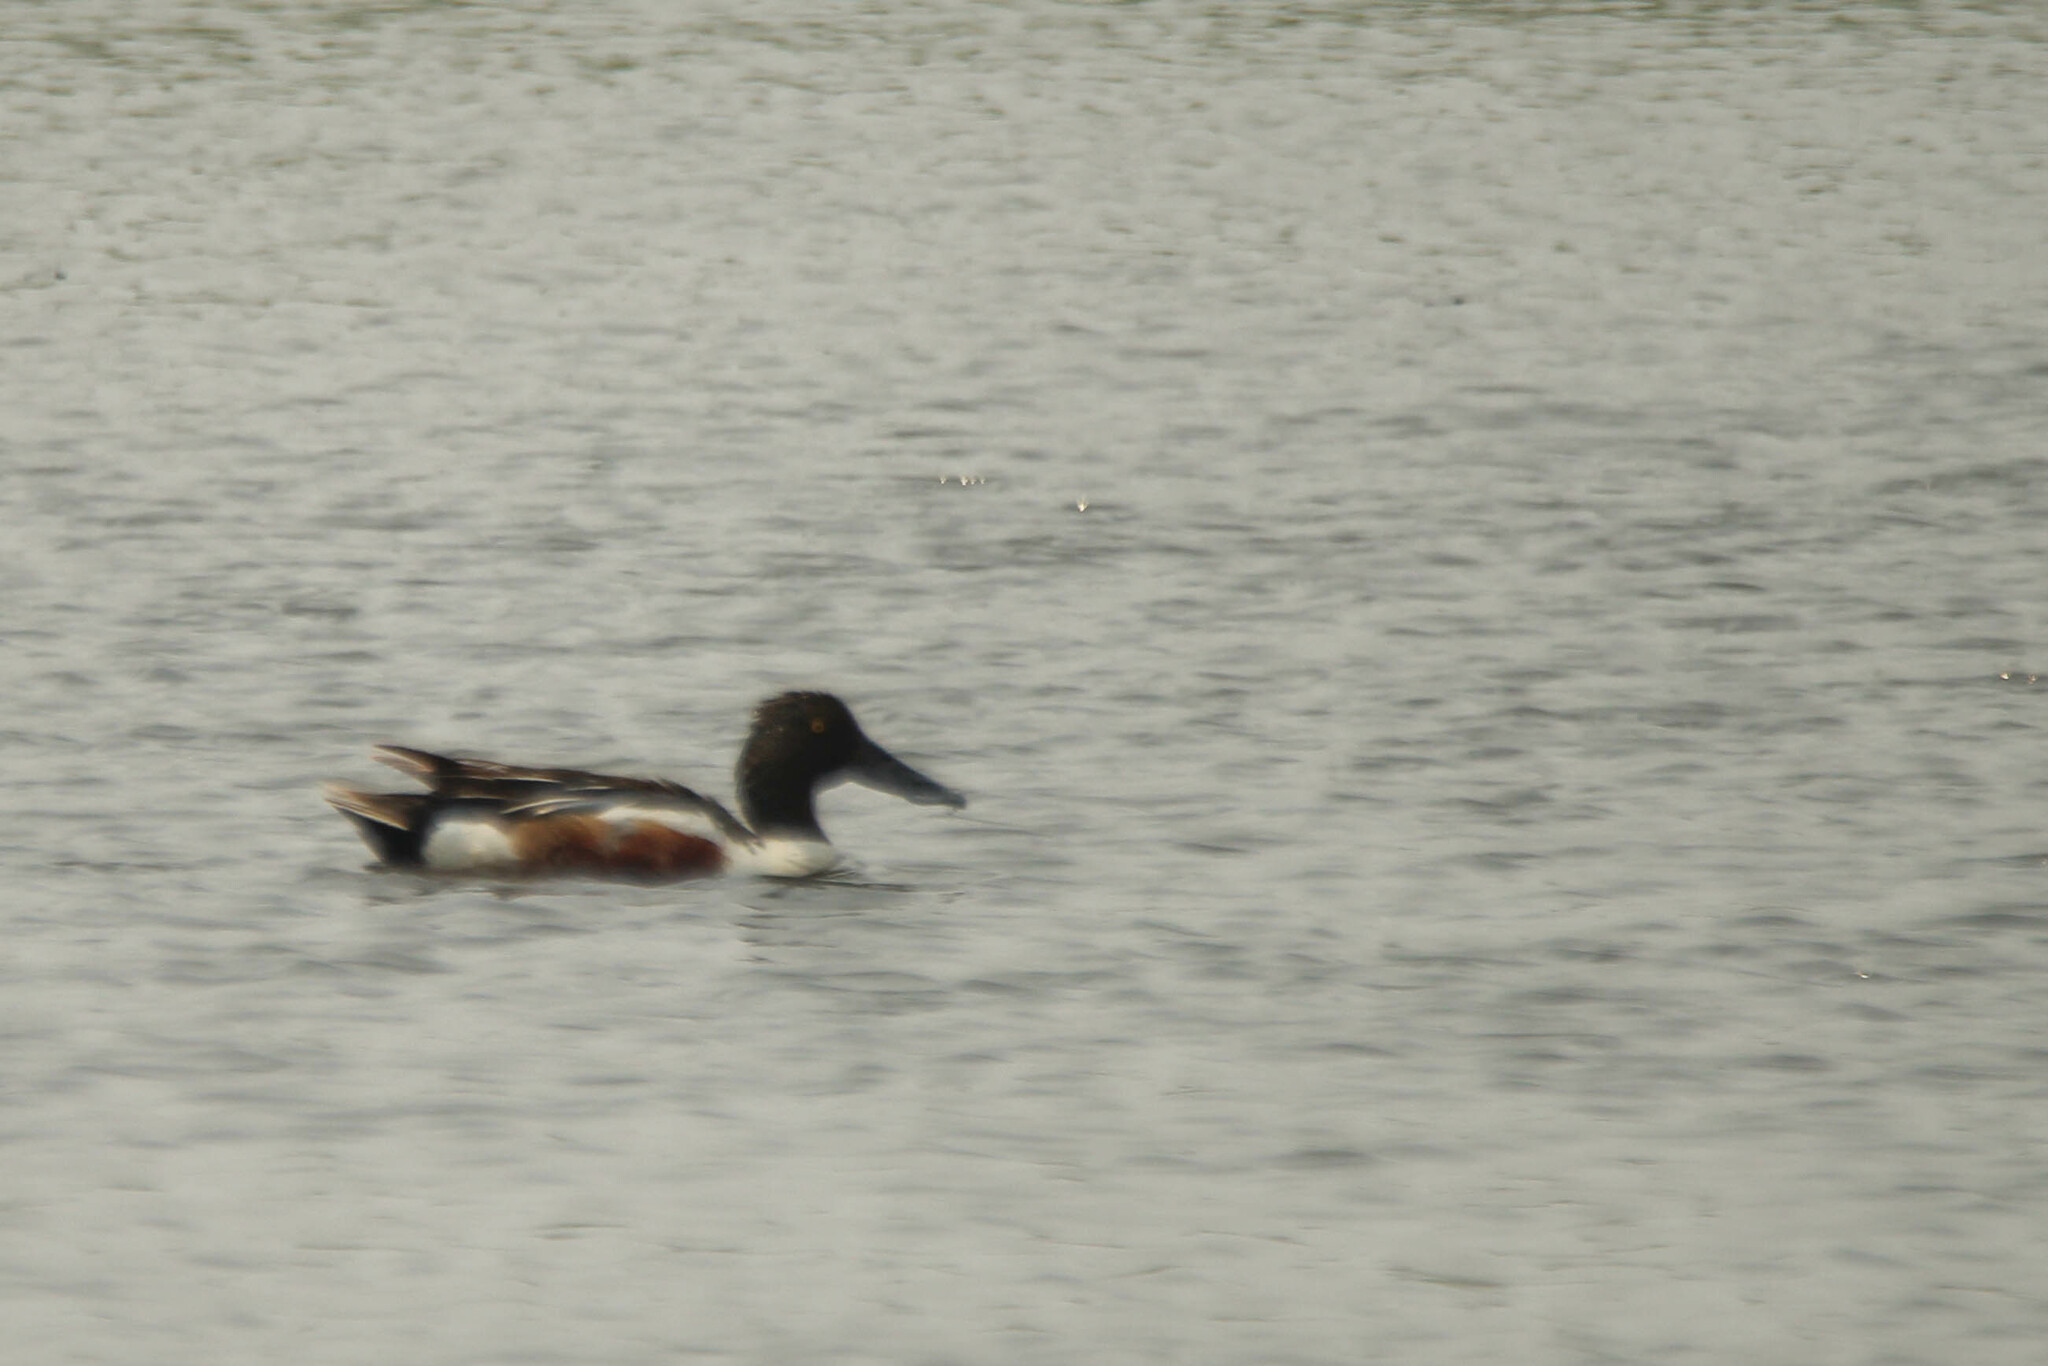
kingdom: Animalia
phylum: Chordata
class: Aves
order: Anseriformes
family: Anatidae
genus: Spatula
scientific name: Spatula clypeata
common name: Northern shoveler
